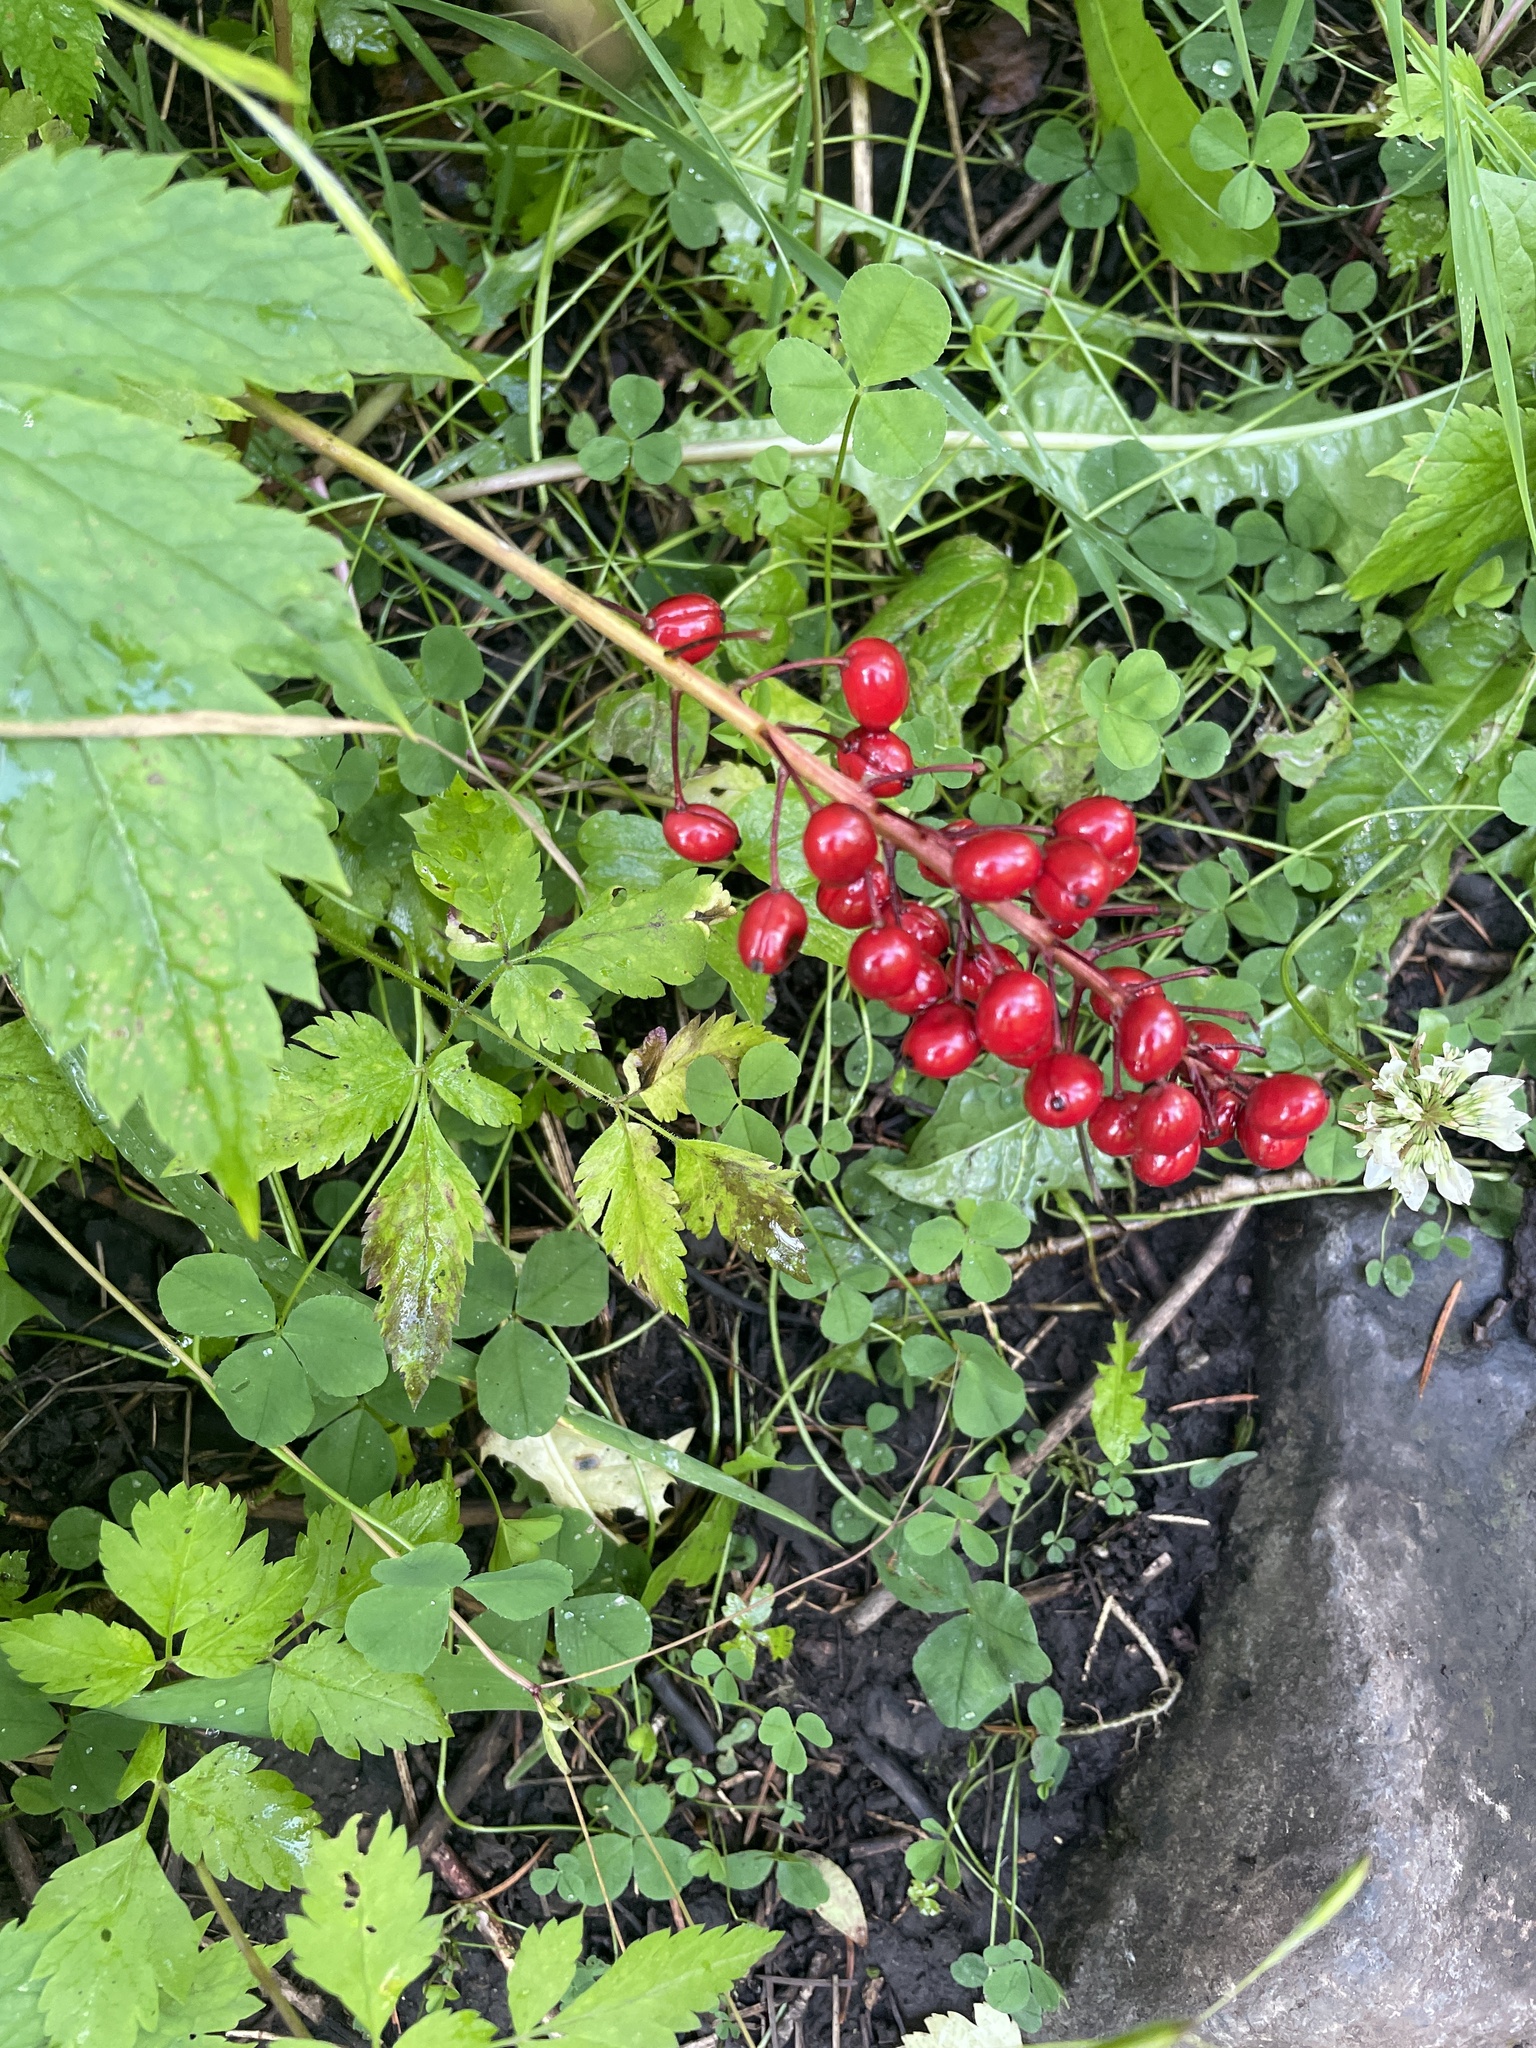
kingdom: Plantae
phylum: Tracheophyta
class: Magnoliopsida
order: Ranunculales
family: Ranunculaceae
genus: Actaea
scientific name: Actaea rubra
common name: Red baneberry
